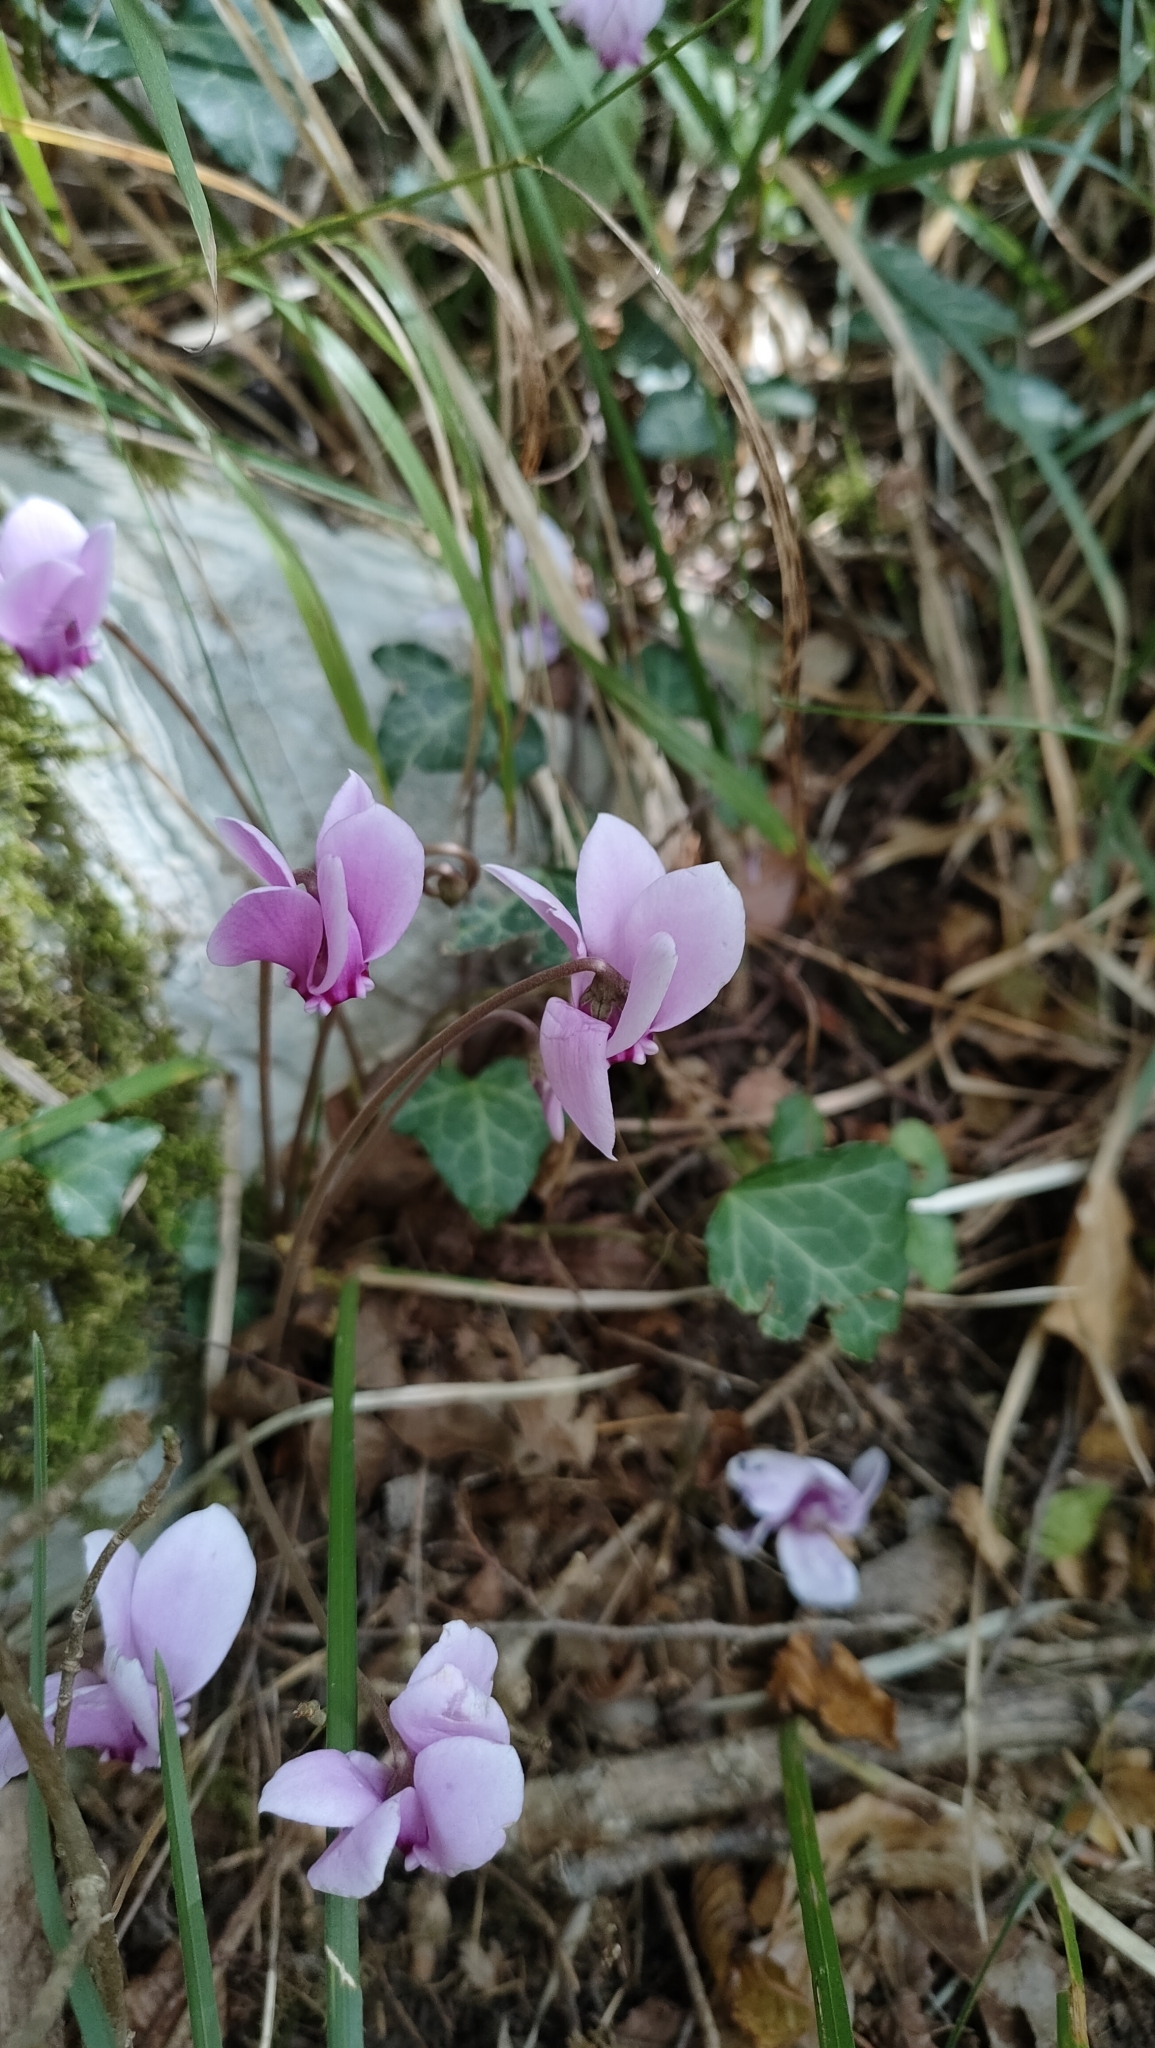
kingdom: Plantae
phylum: Tracheophyta
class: Magnoliopsida
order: Ericales
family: Primulaceae
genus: Cyclamen
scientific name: Cyclamen hederifolium
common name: Sowbread
